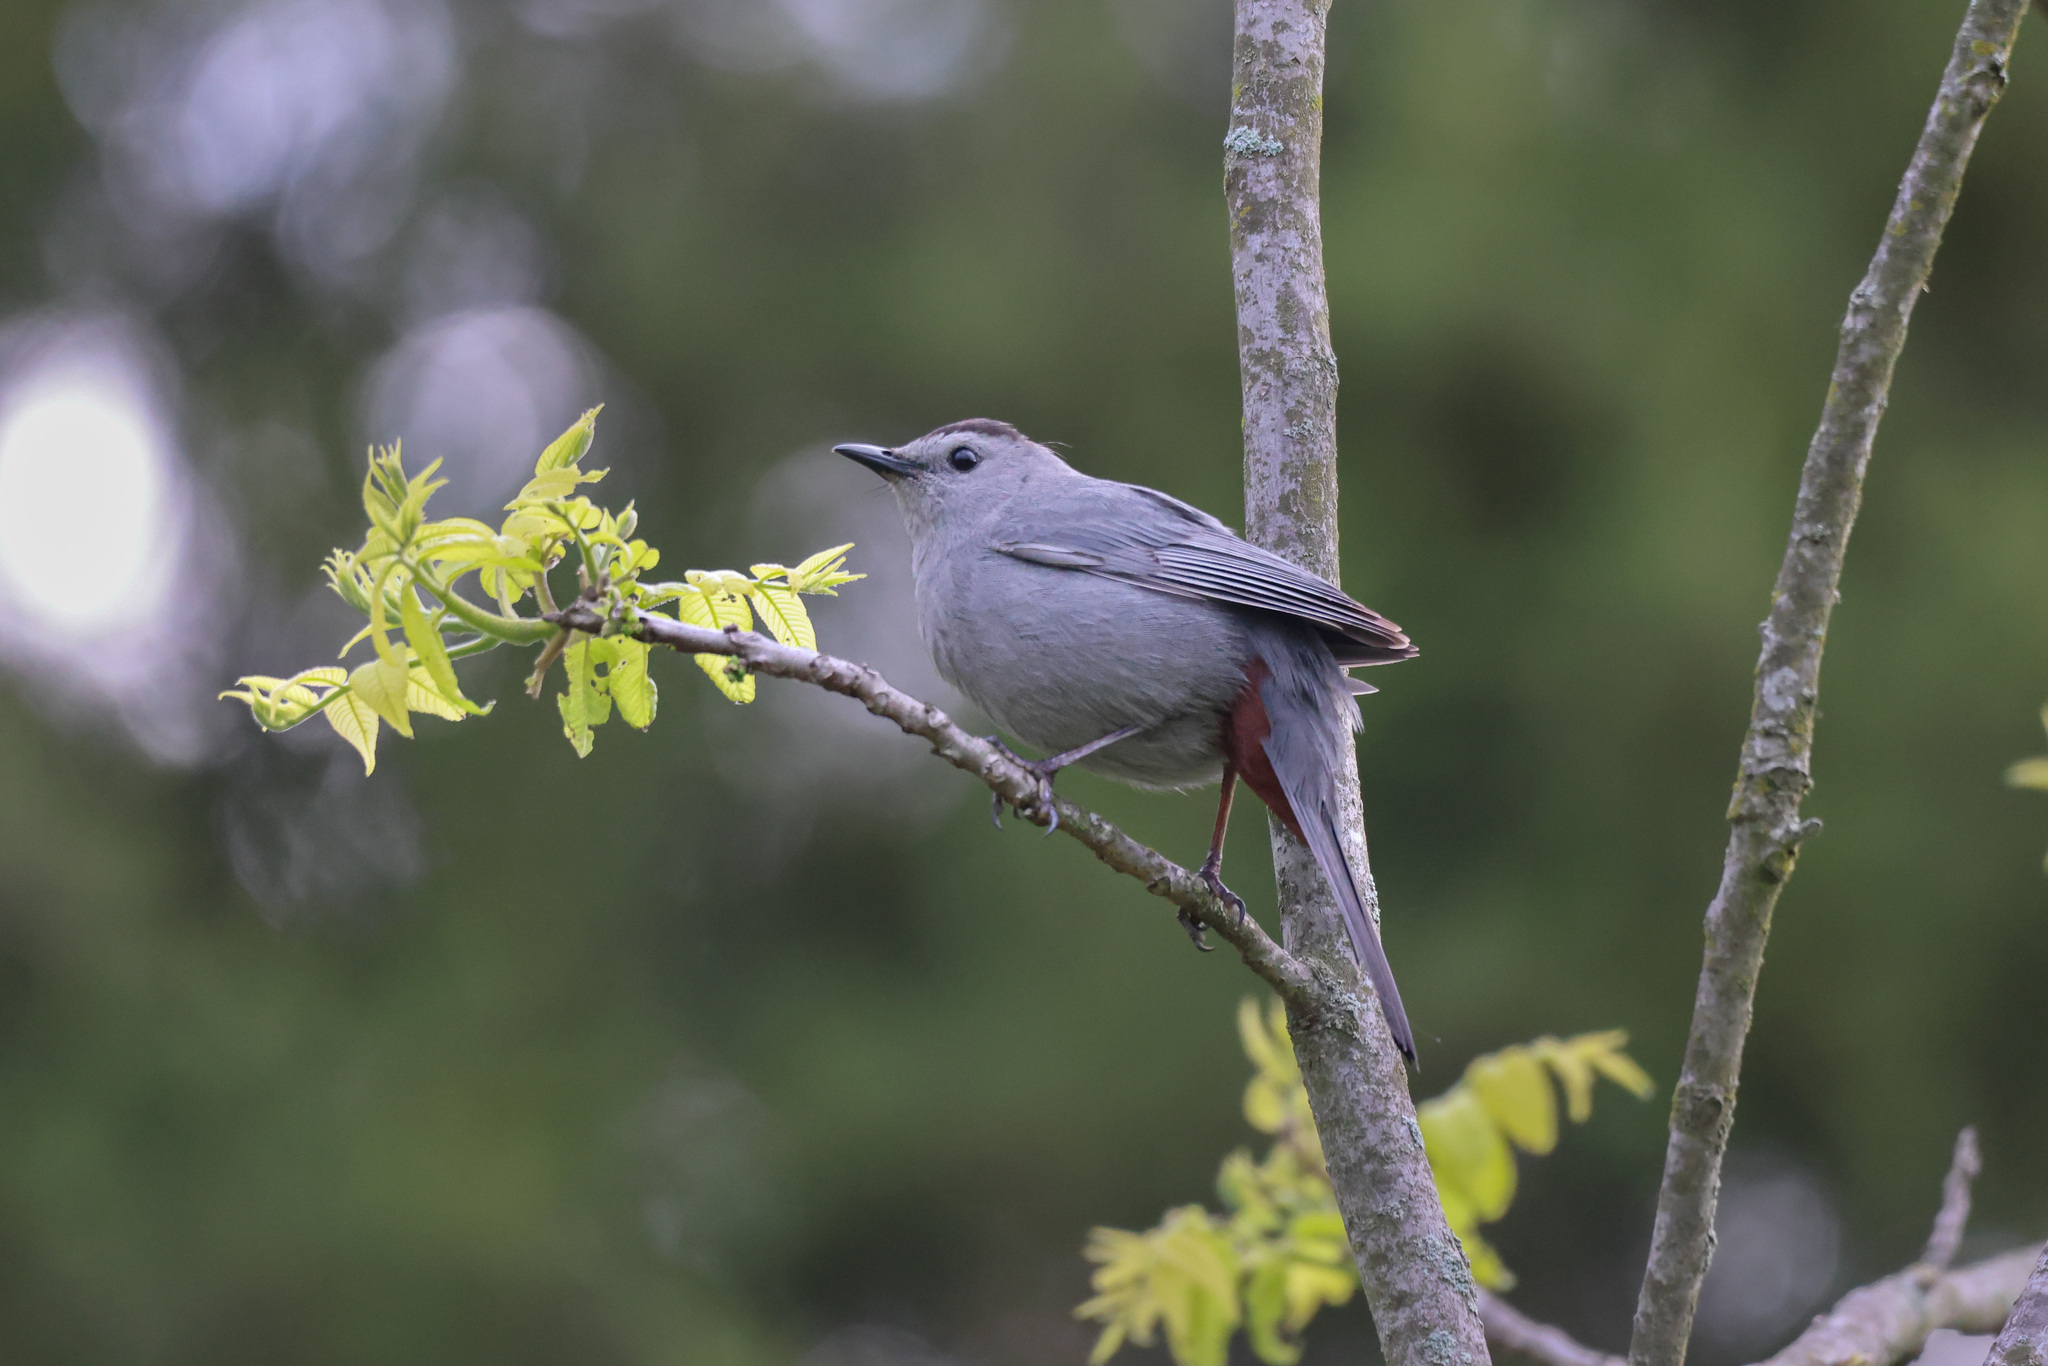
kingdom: Animalia
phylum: Chordata
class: Aves
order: Passeriformes
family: Mimidae
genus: Dumetella
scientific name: Dumetella carolinensis
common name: Gray catbird
